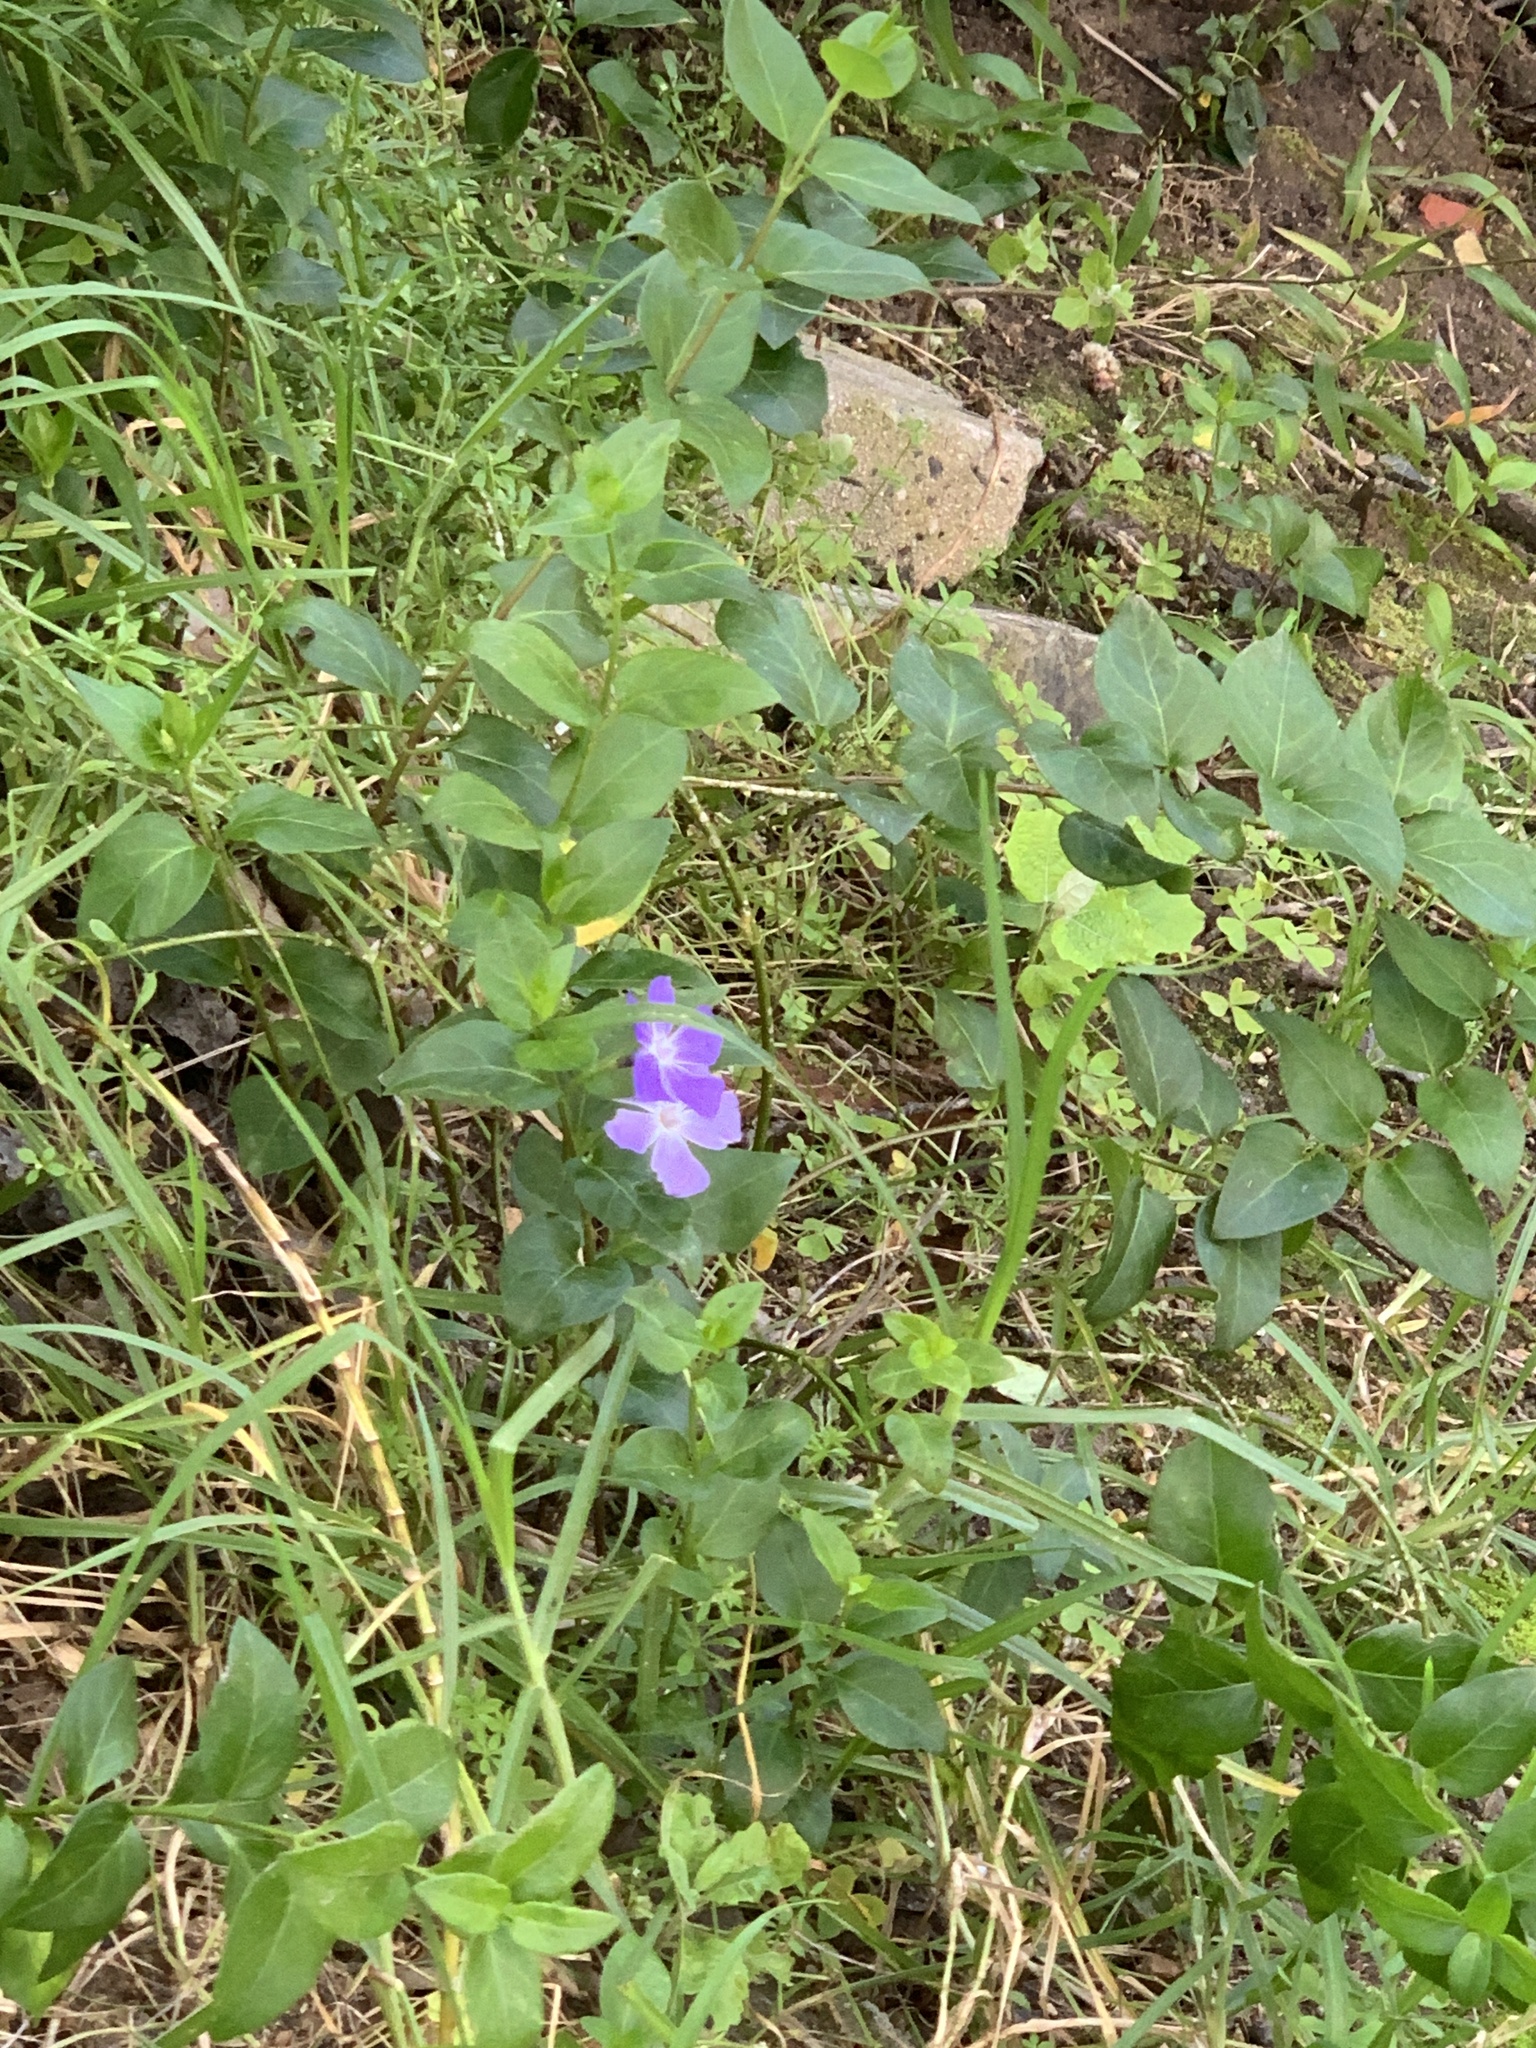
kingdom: Plantae
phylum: Tracheophyta
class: Magnoliopsida
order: Gentianales
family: Apocynaceae
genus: Vinca
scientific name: Vinca major
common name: Greater periwinkle
